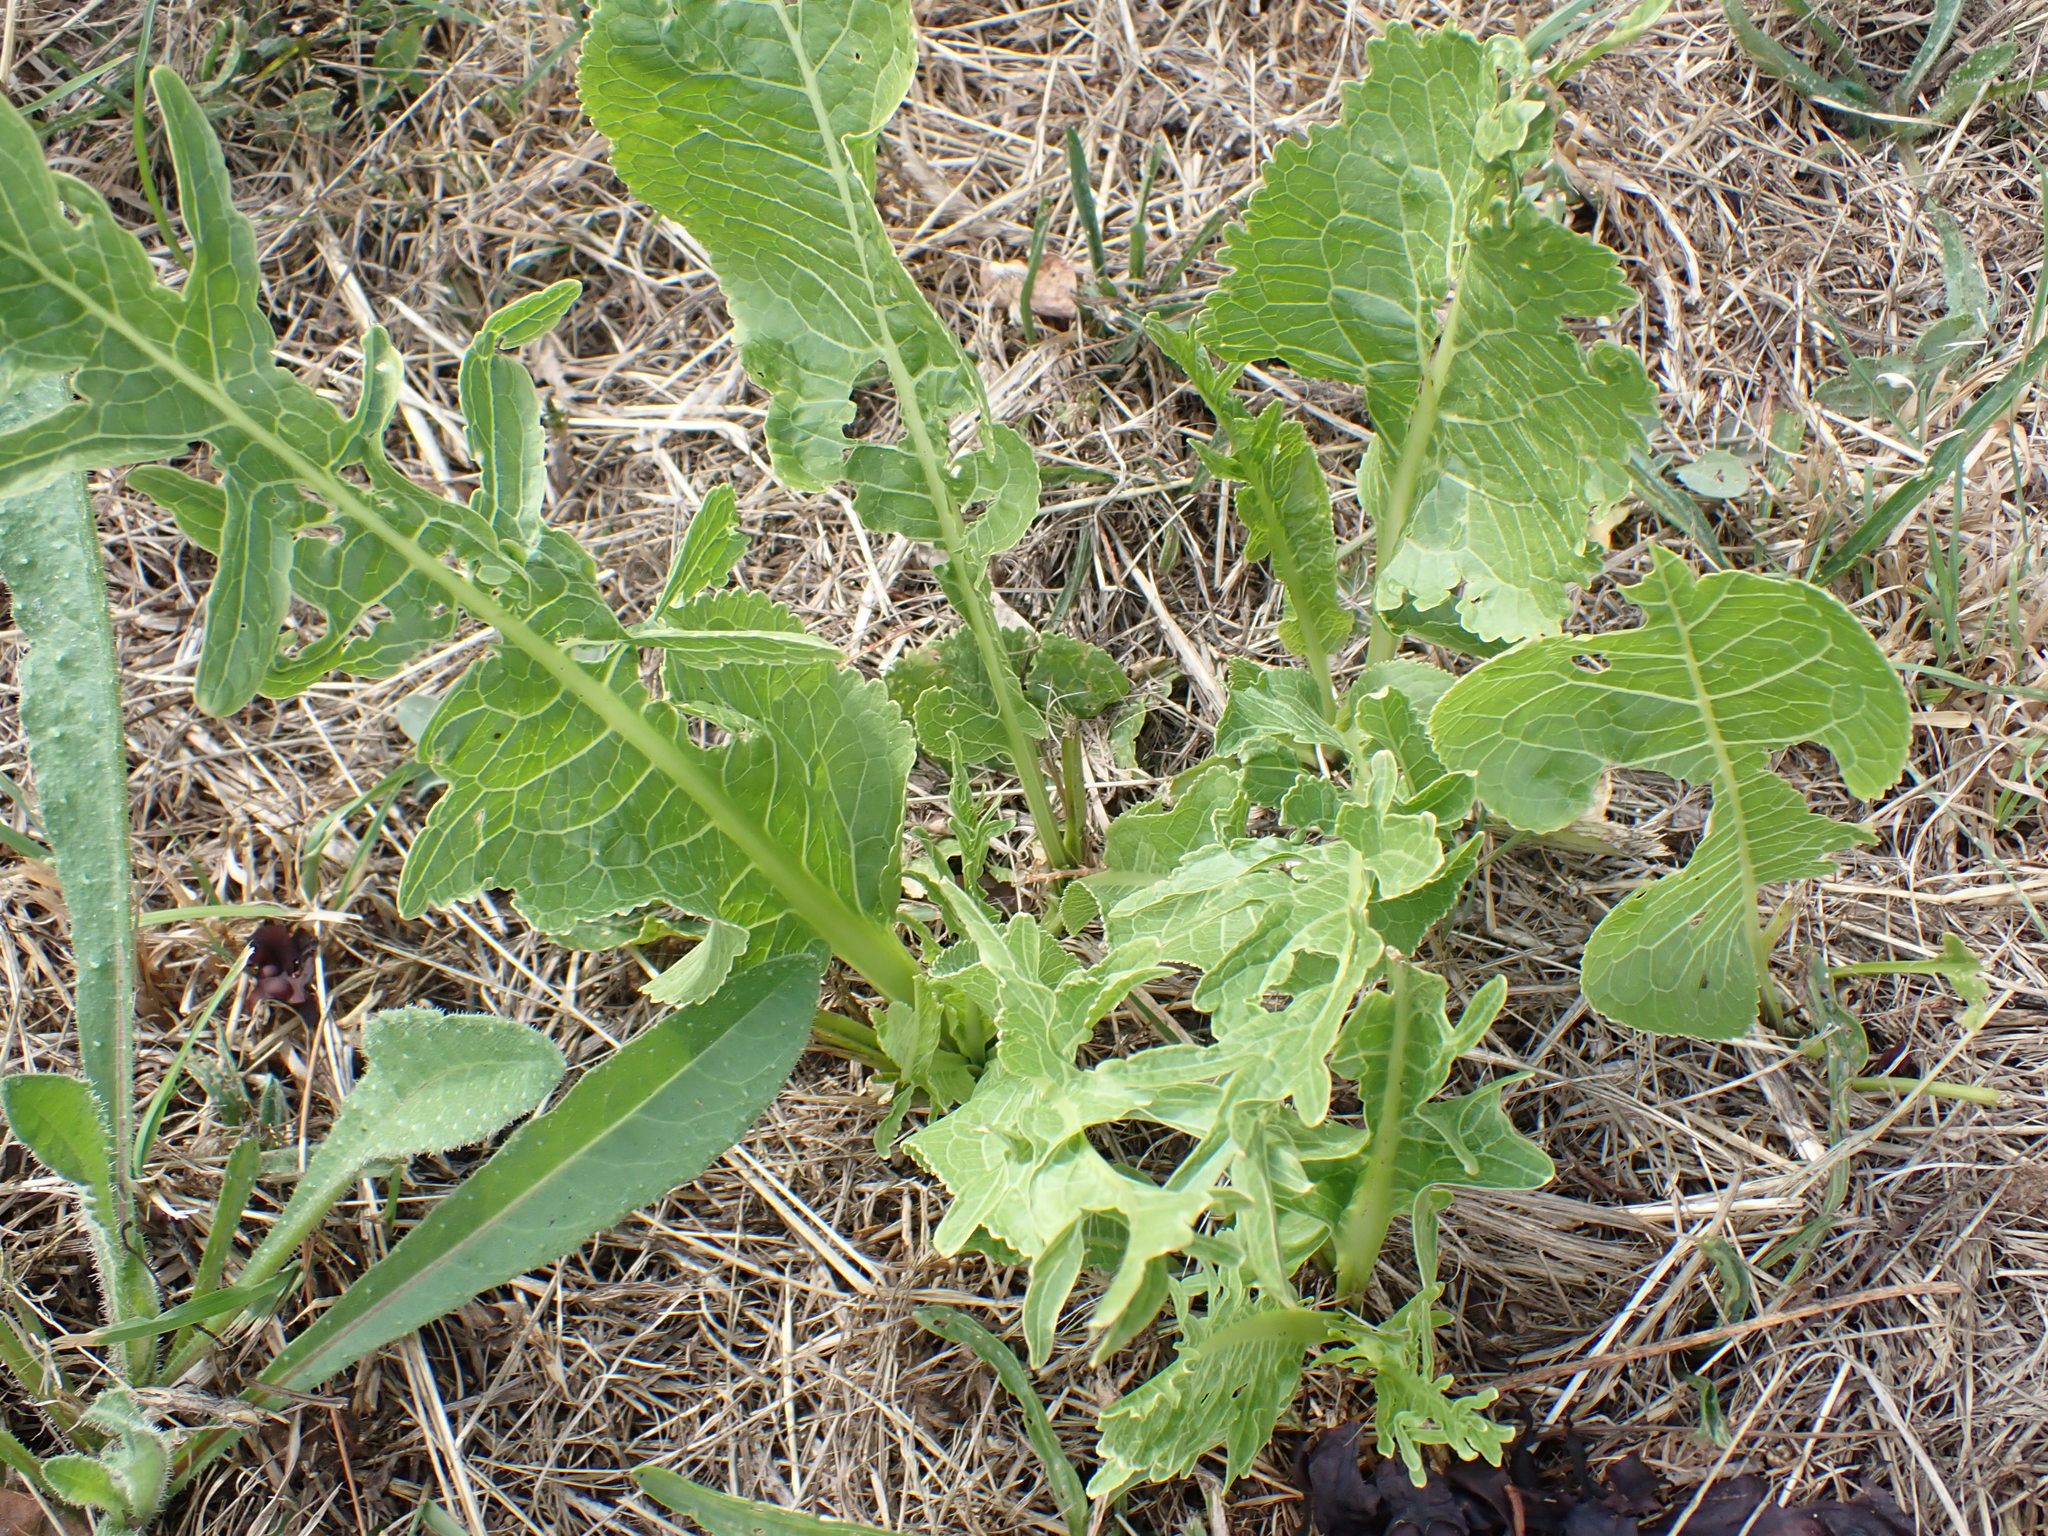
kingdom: Plantae
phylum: Tracheophyta
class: Magnoliopsida
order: Brassicales
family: Brassicaceae
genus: Armoracia
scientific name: Armoracia rusticana
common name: Horseradish
